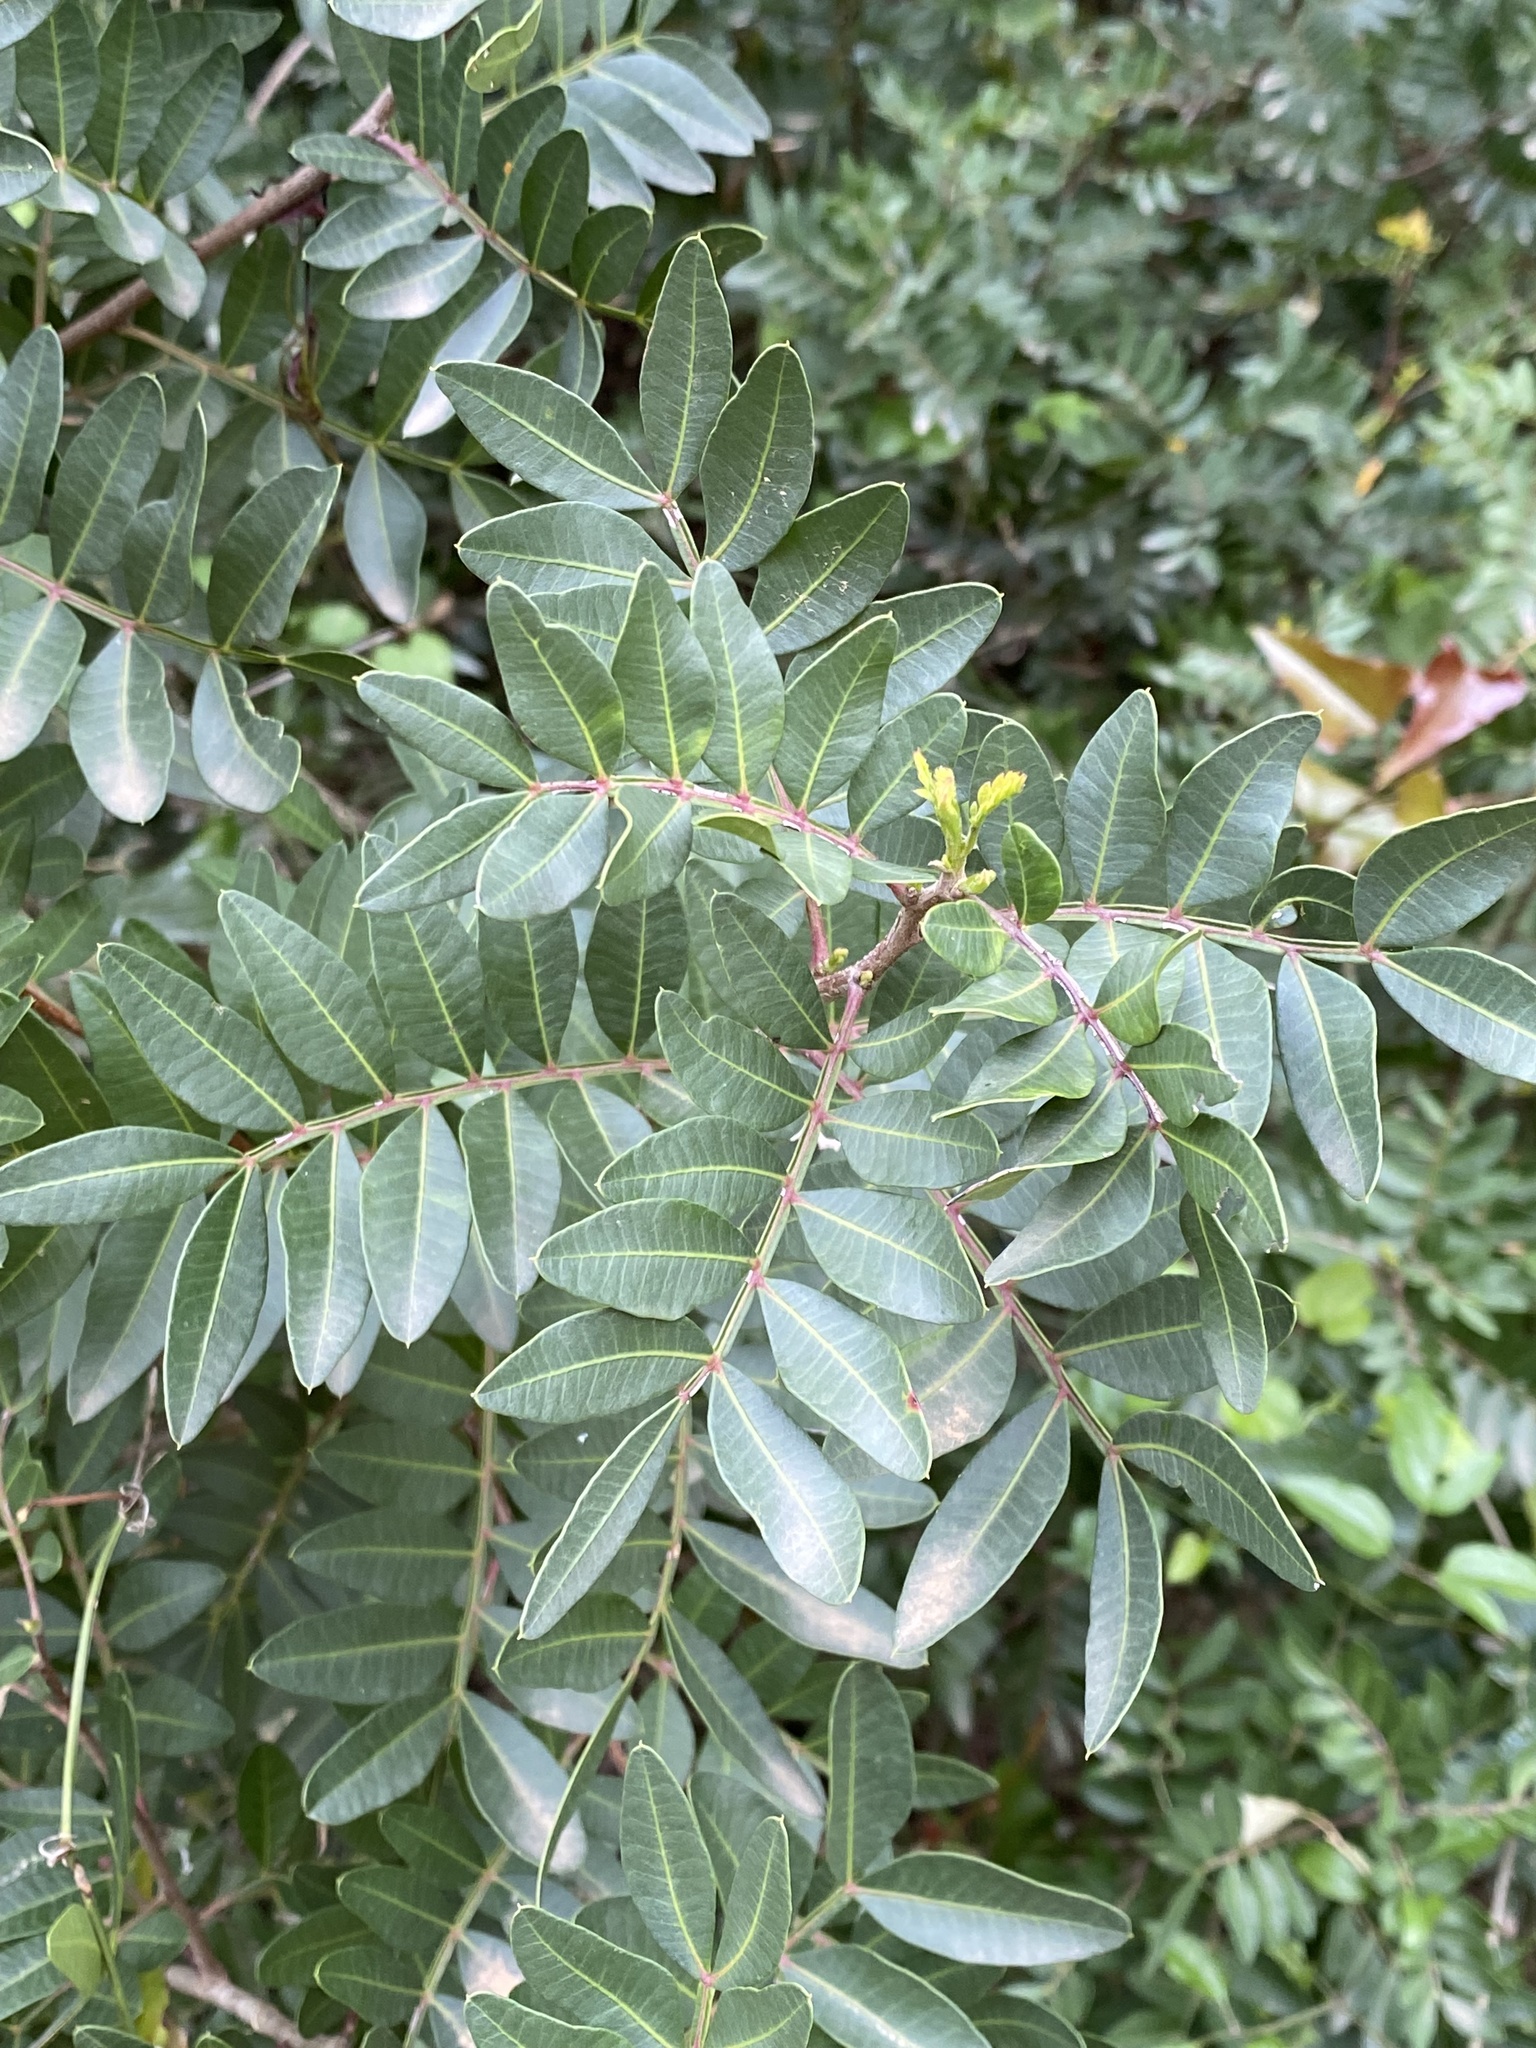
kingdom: Plantae
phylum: Tracheophyta
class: Magnoliopsida
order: Sapindales
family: Anacardiaceae
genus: Pistacia
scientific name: Pistacia lentiscus
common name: Lentisk
